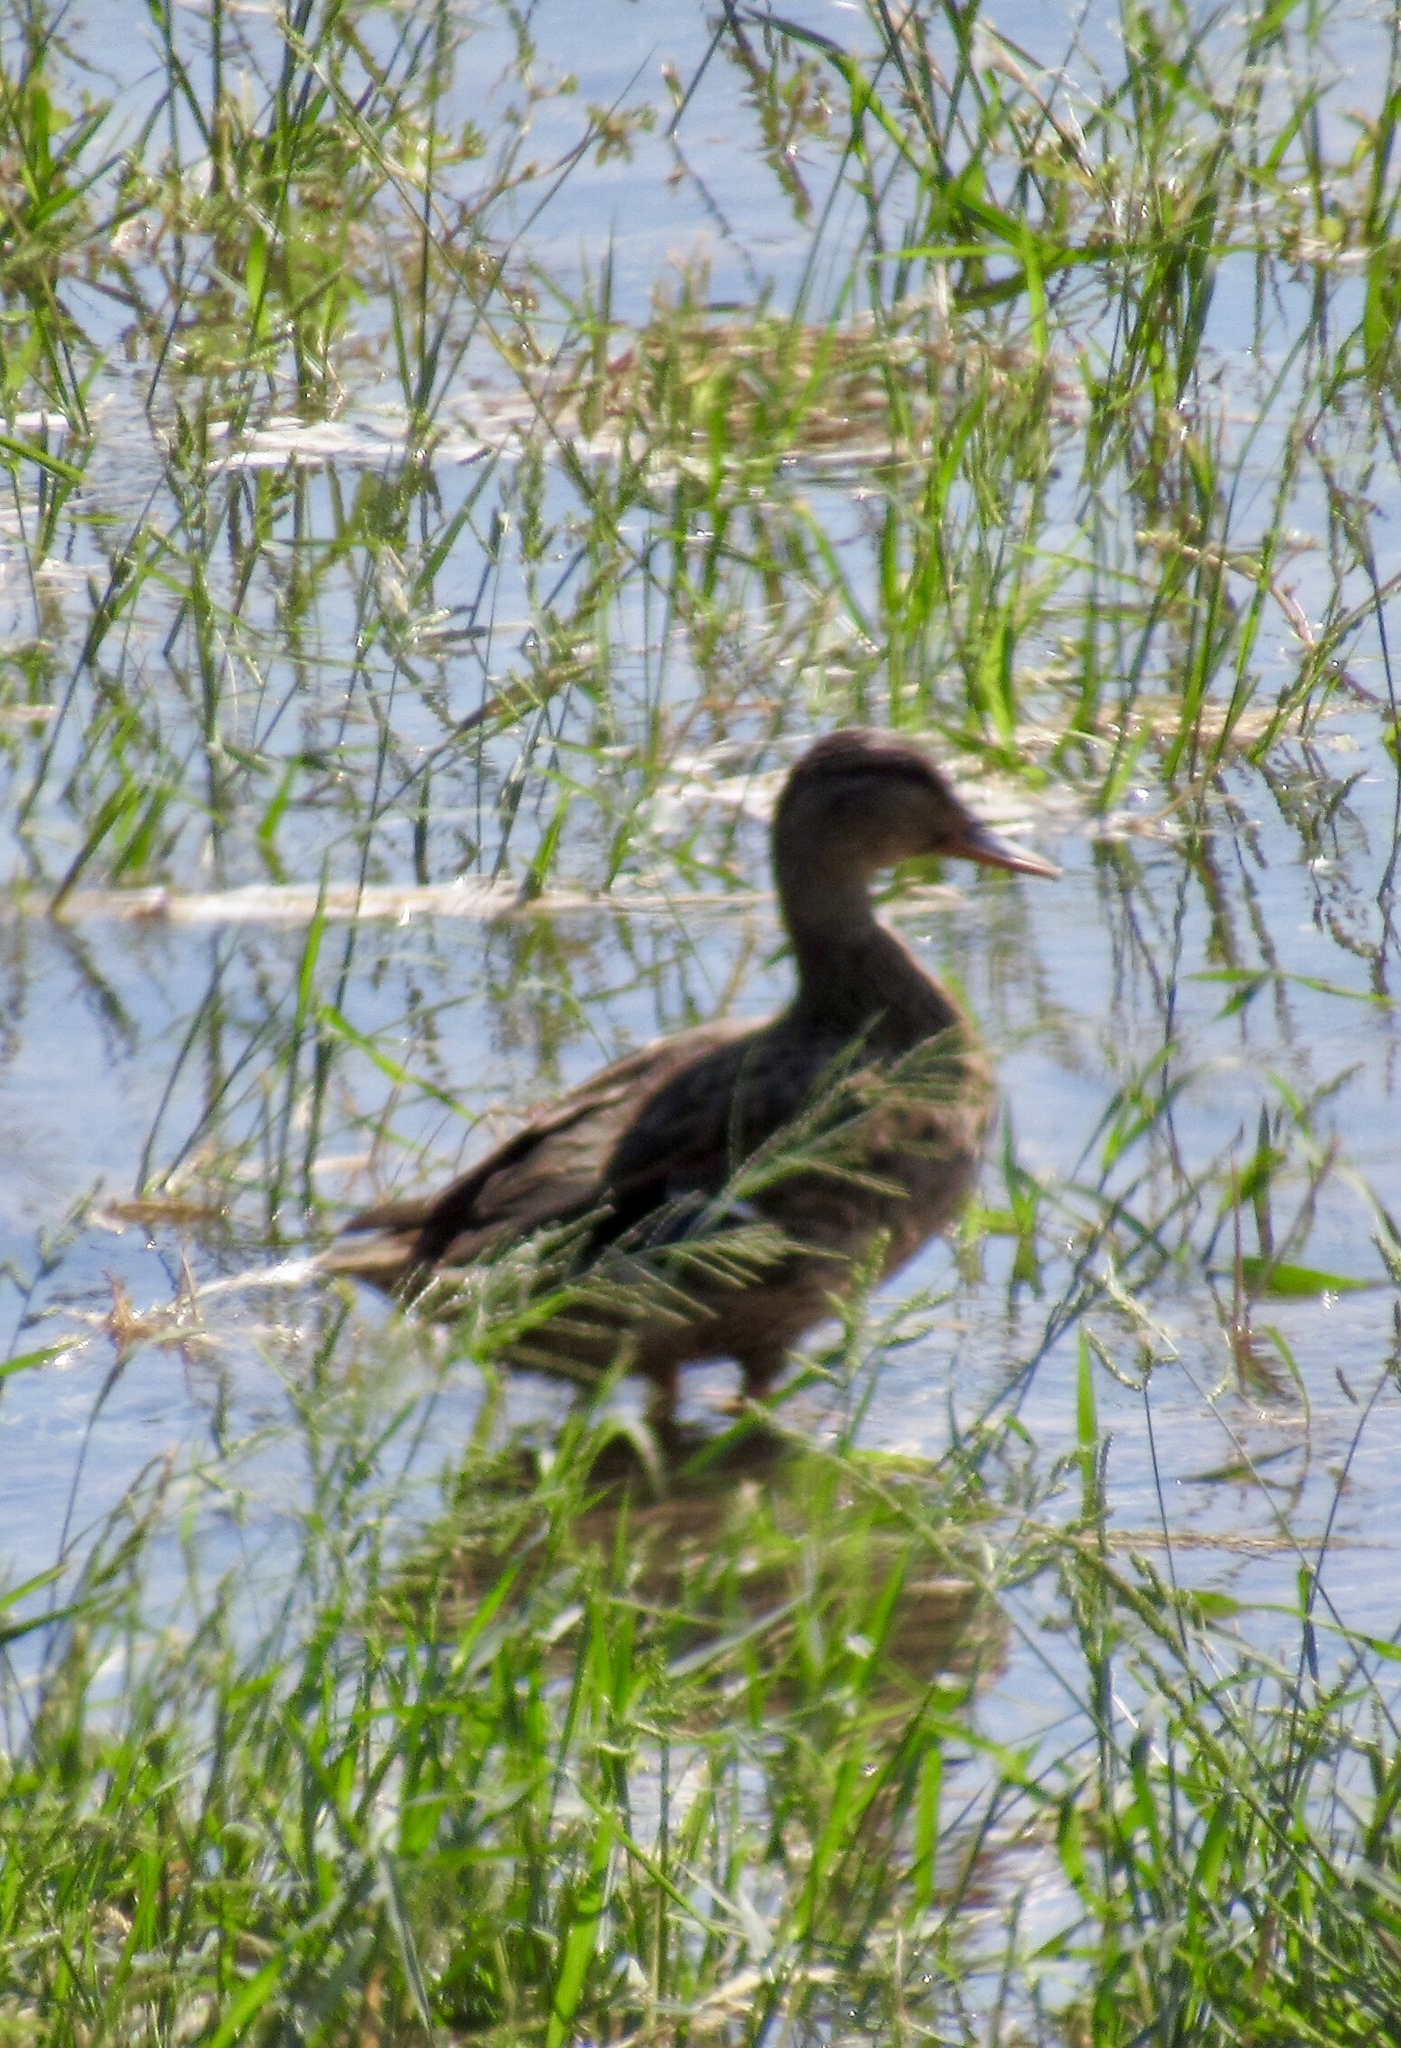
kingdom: Animalia
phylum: Chordata
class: Aves
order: Anseriformes
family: Anatidae
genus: Anas
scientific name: Anas platyrhynchos
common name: Mallard
